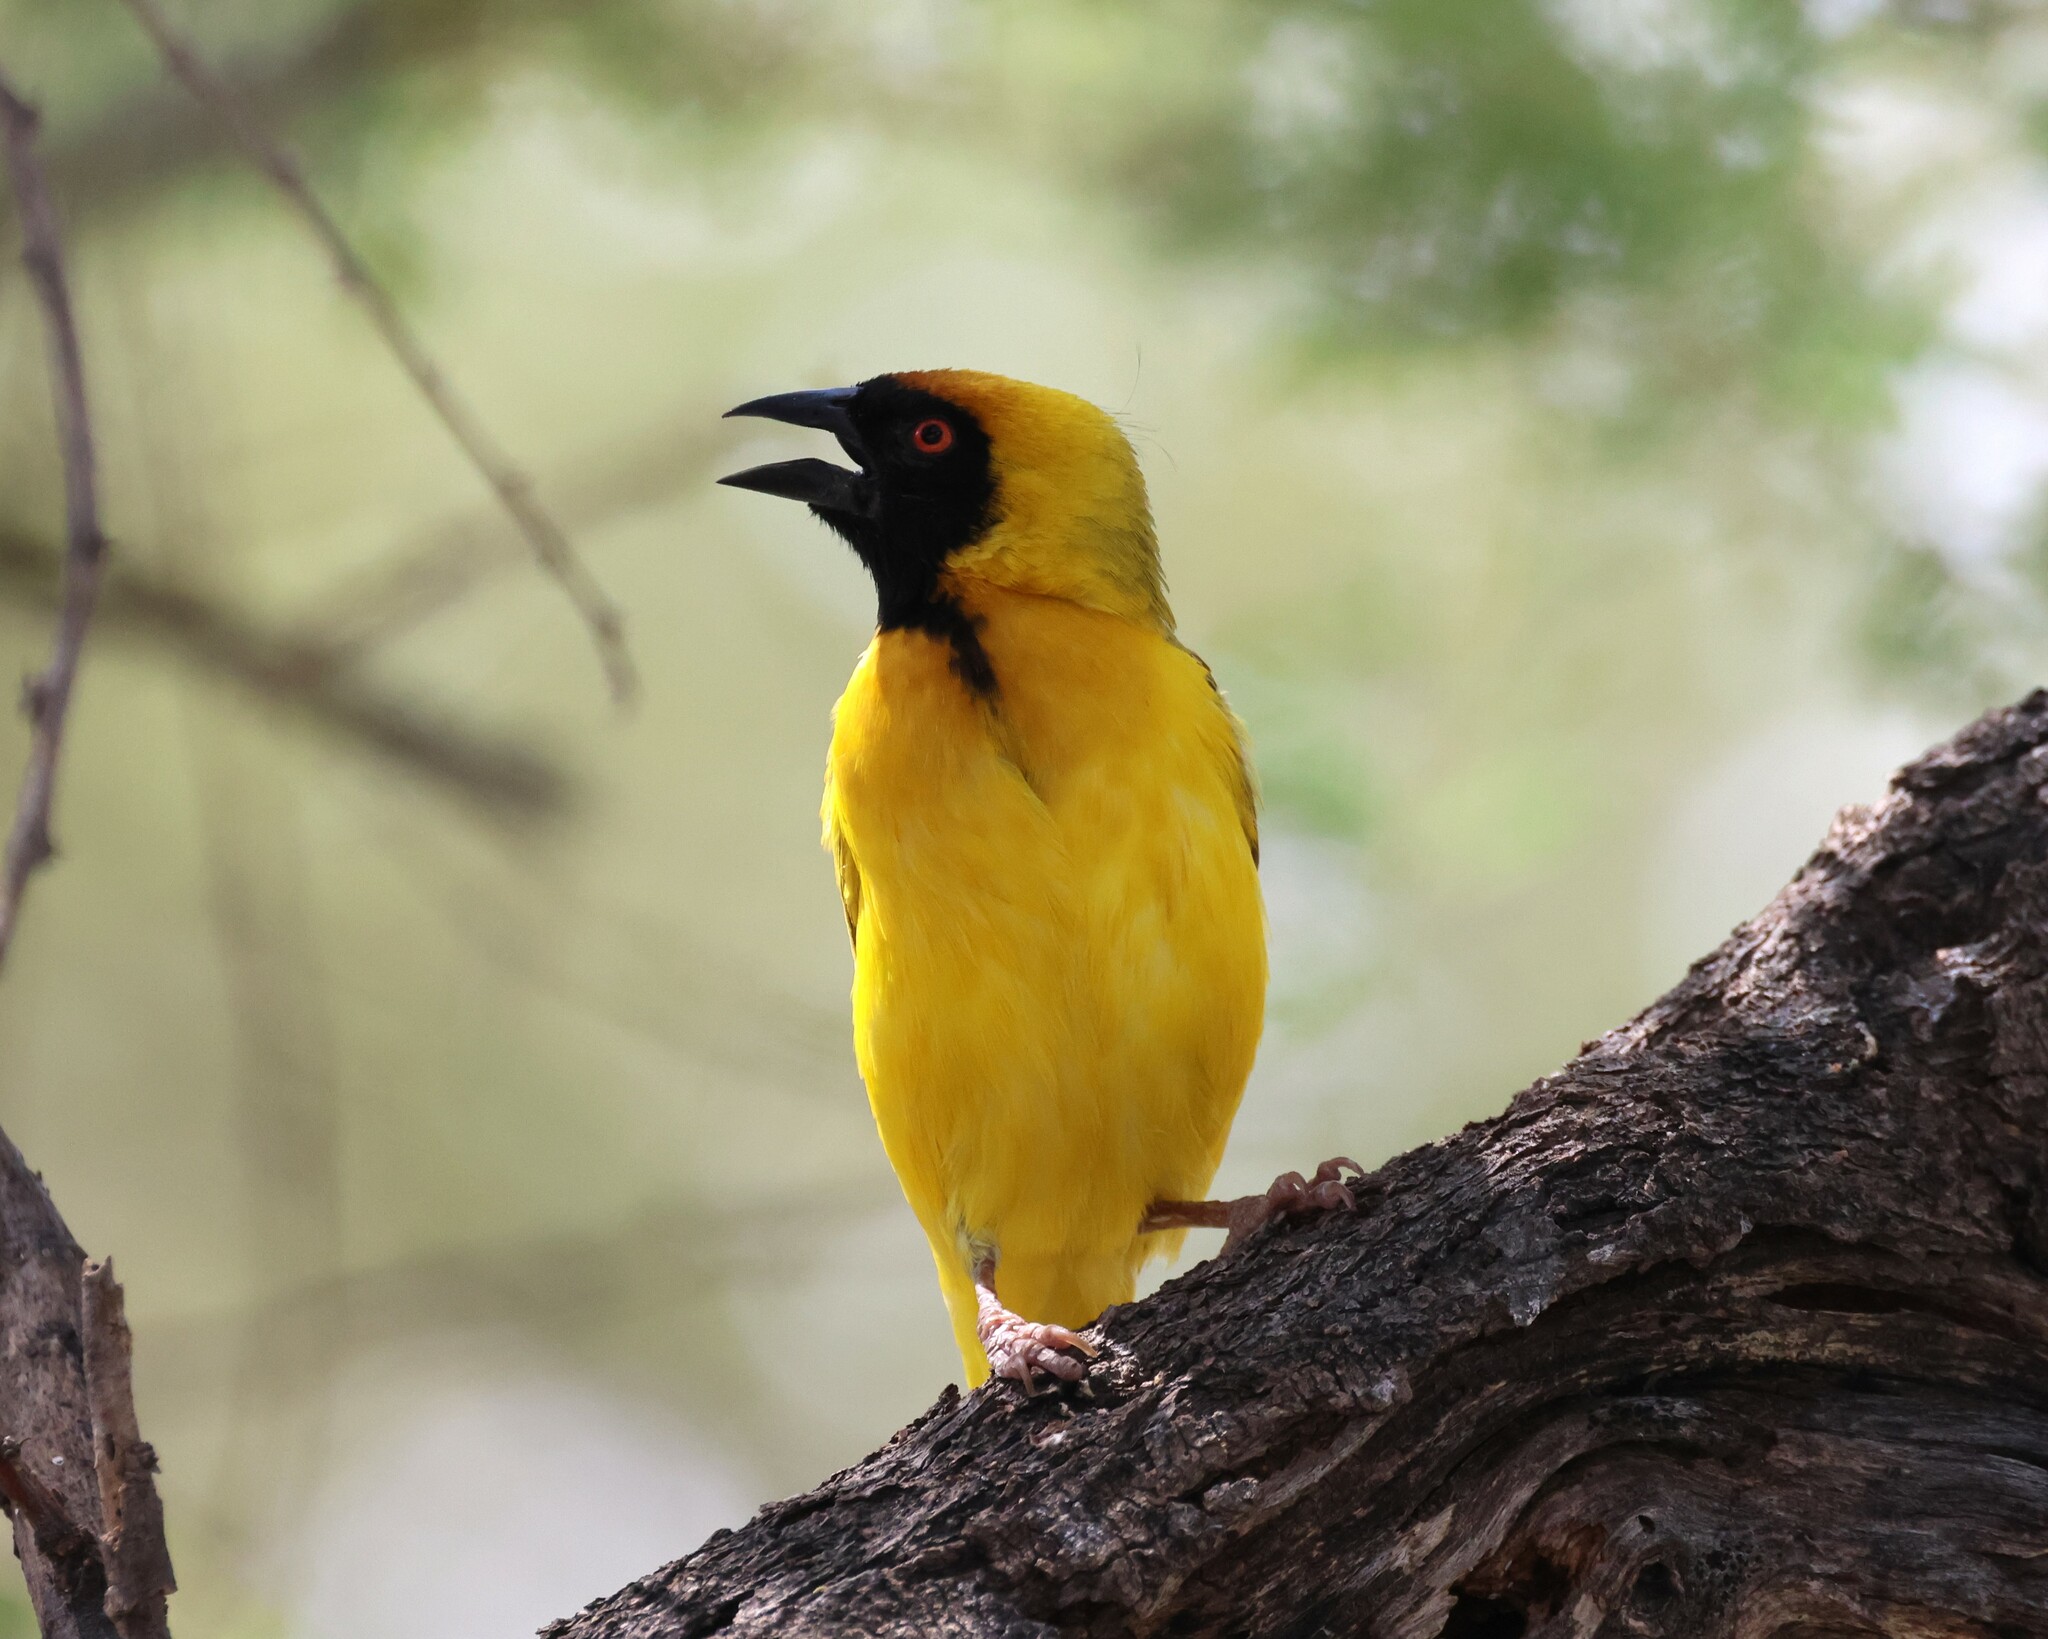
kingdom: Animalia
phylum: Chordata
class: Aves
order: Passeriformes
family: Ploceidae
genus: Ploceus
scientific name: Ploceus velatus
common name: Southern masked weaver
